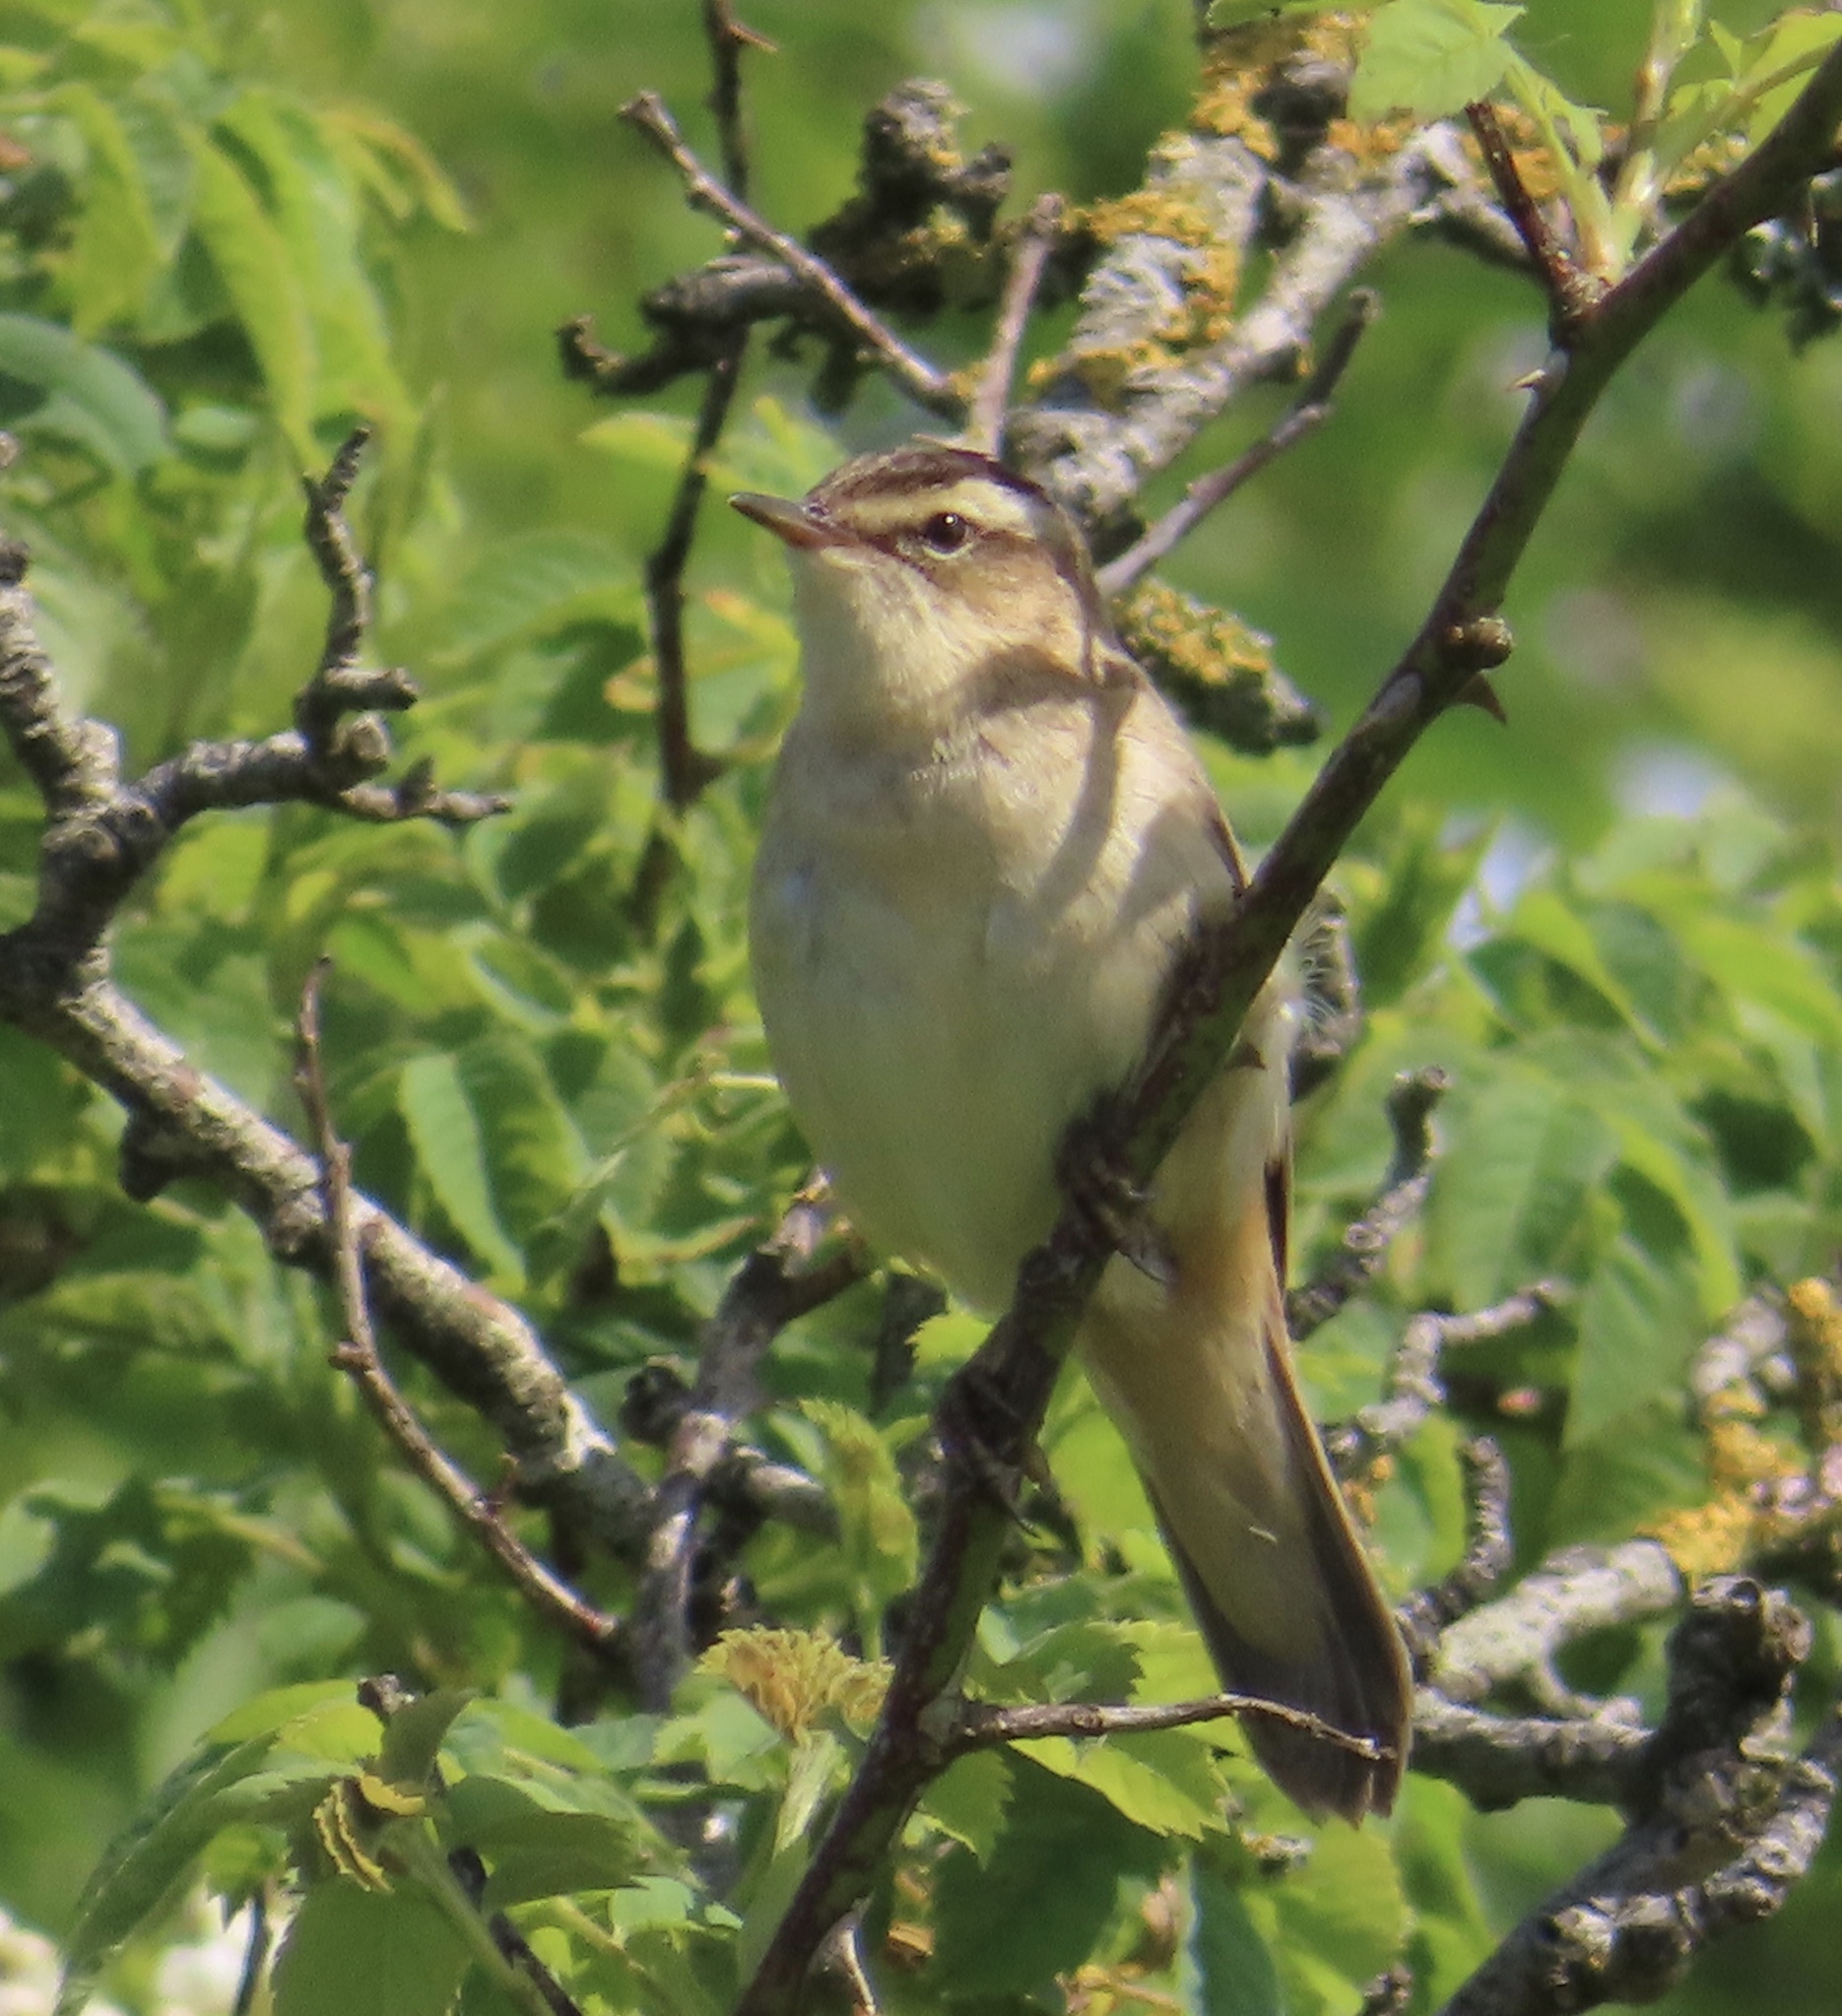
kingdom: Animalia
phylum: Chordata
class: Aves
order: Passeriformes
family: Acrocephalidae
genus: Acrocephalus
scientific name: Acrocephalus schoenobaenus
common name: Sedge warbler
